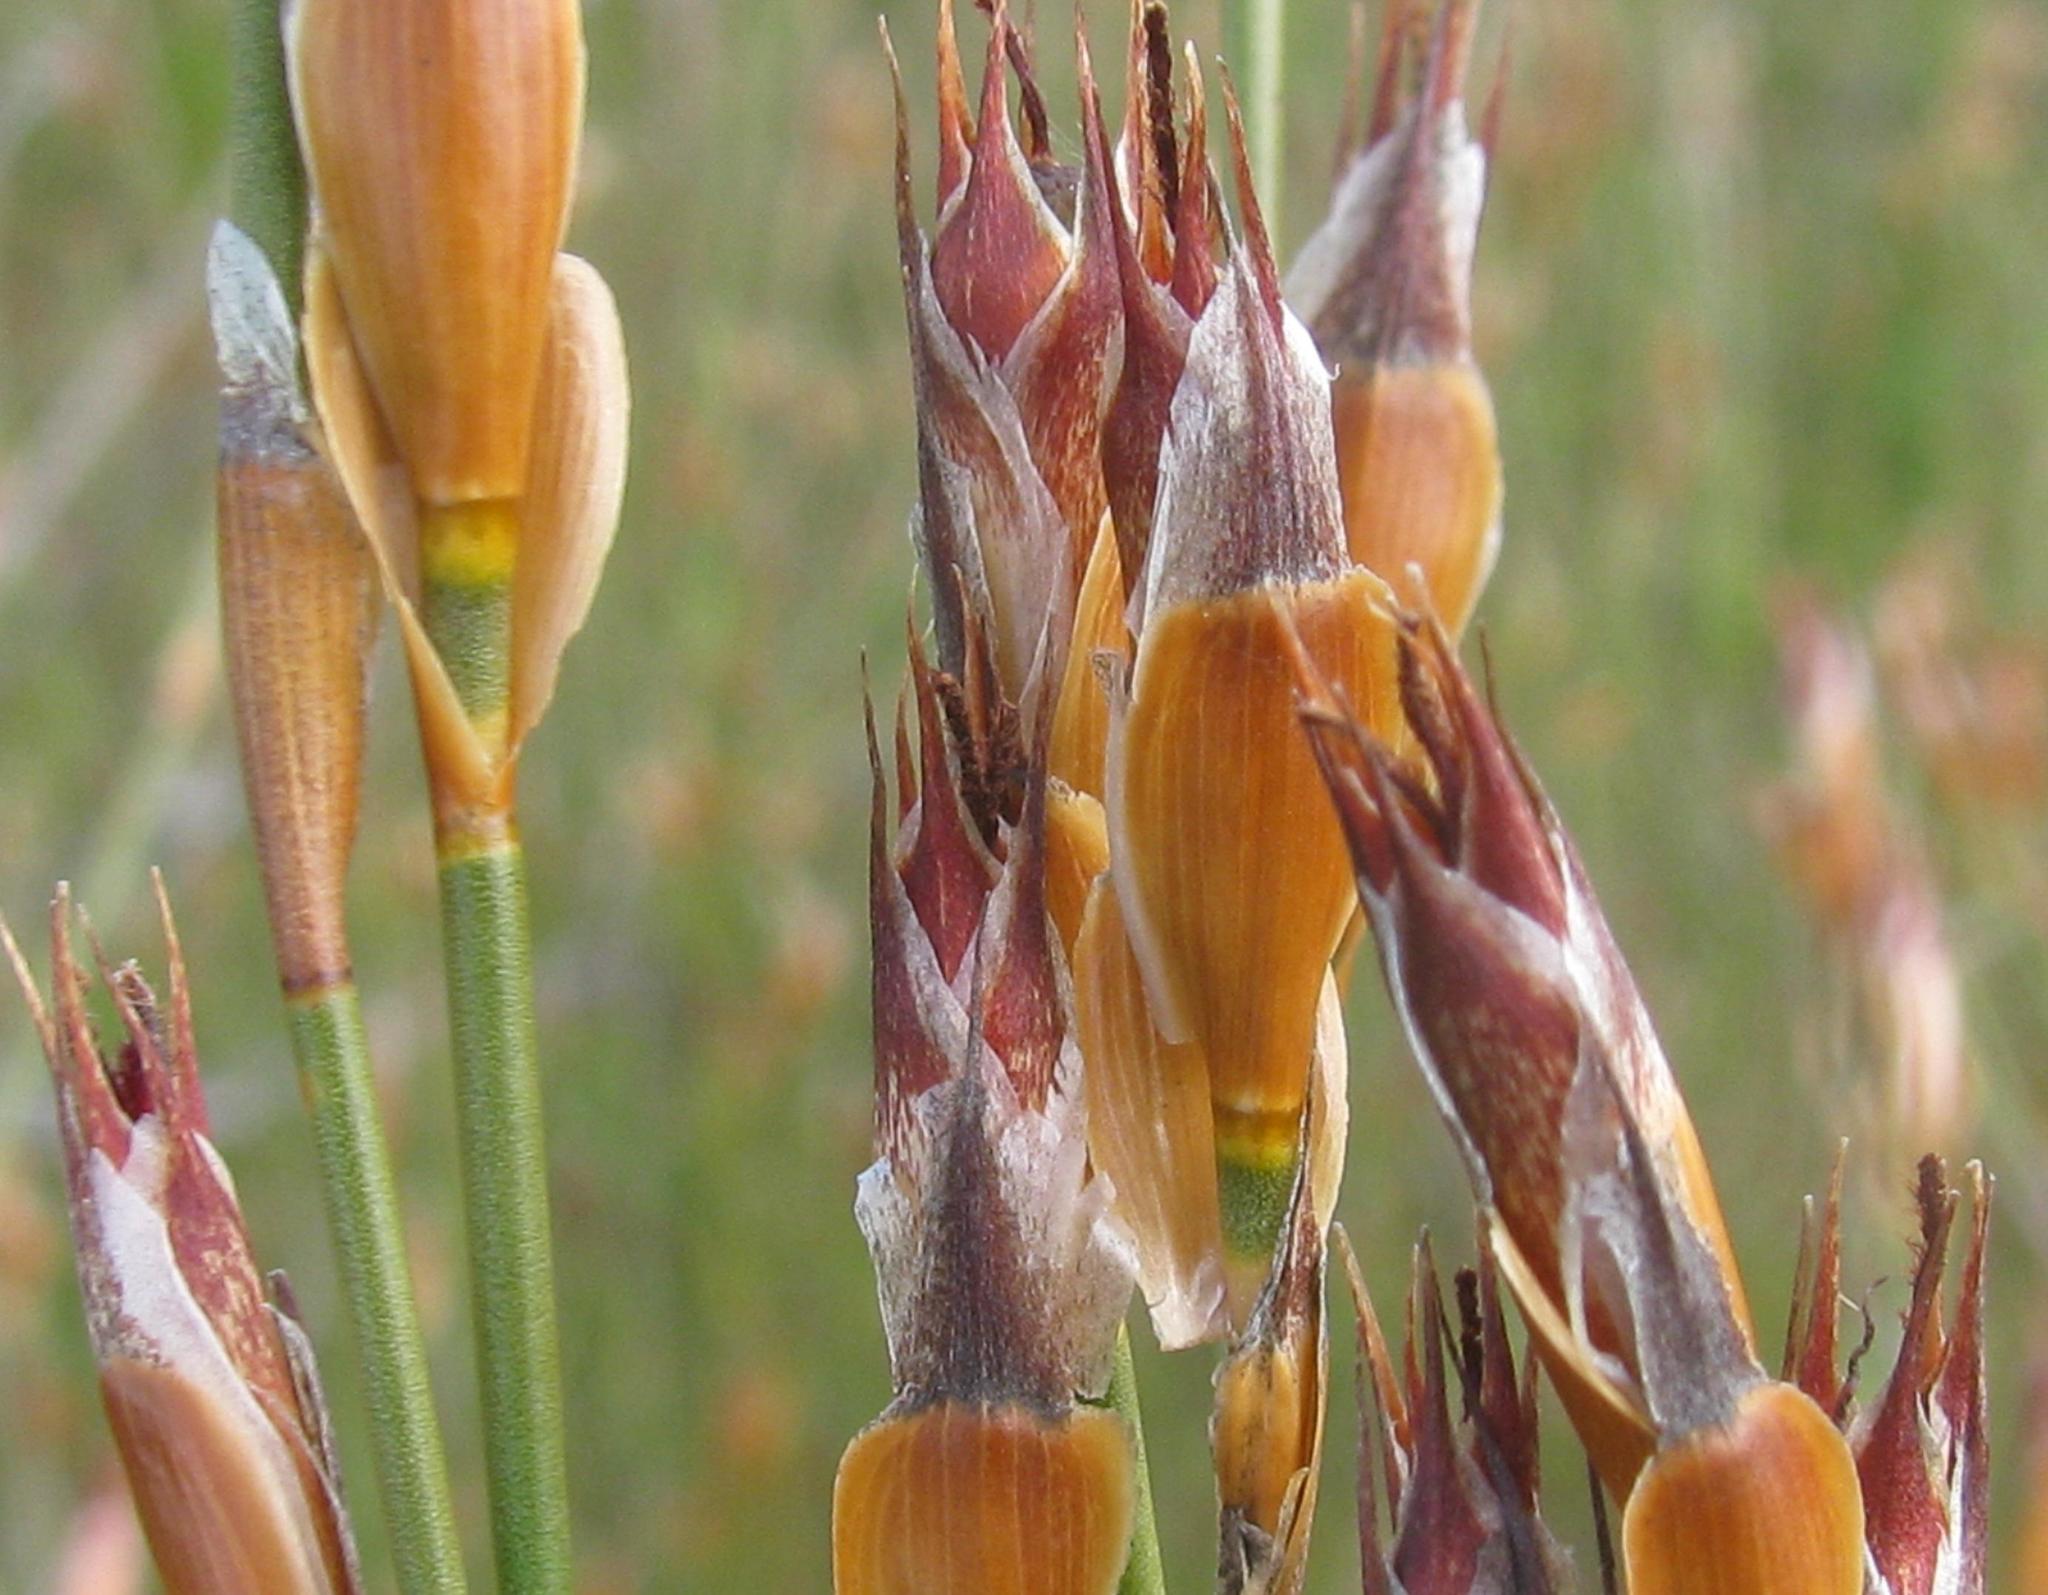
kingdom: Plantae
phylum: Tracheophyta
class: Liliopsida
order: Poales
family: Restionaceae
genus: Willdenowia
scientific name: Willdenowia arescens
